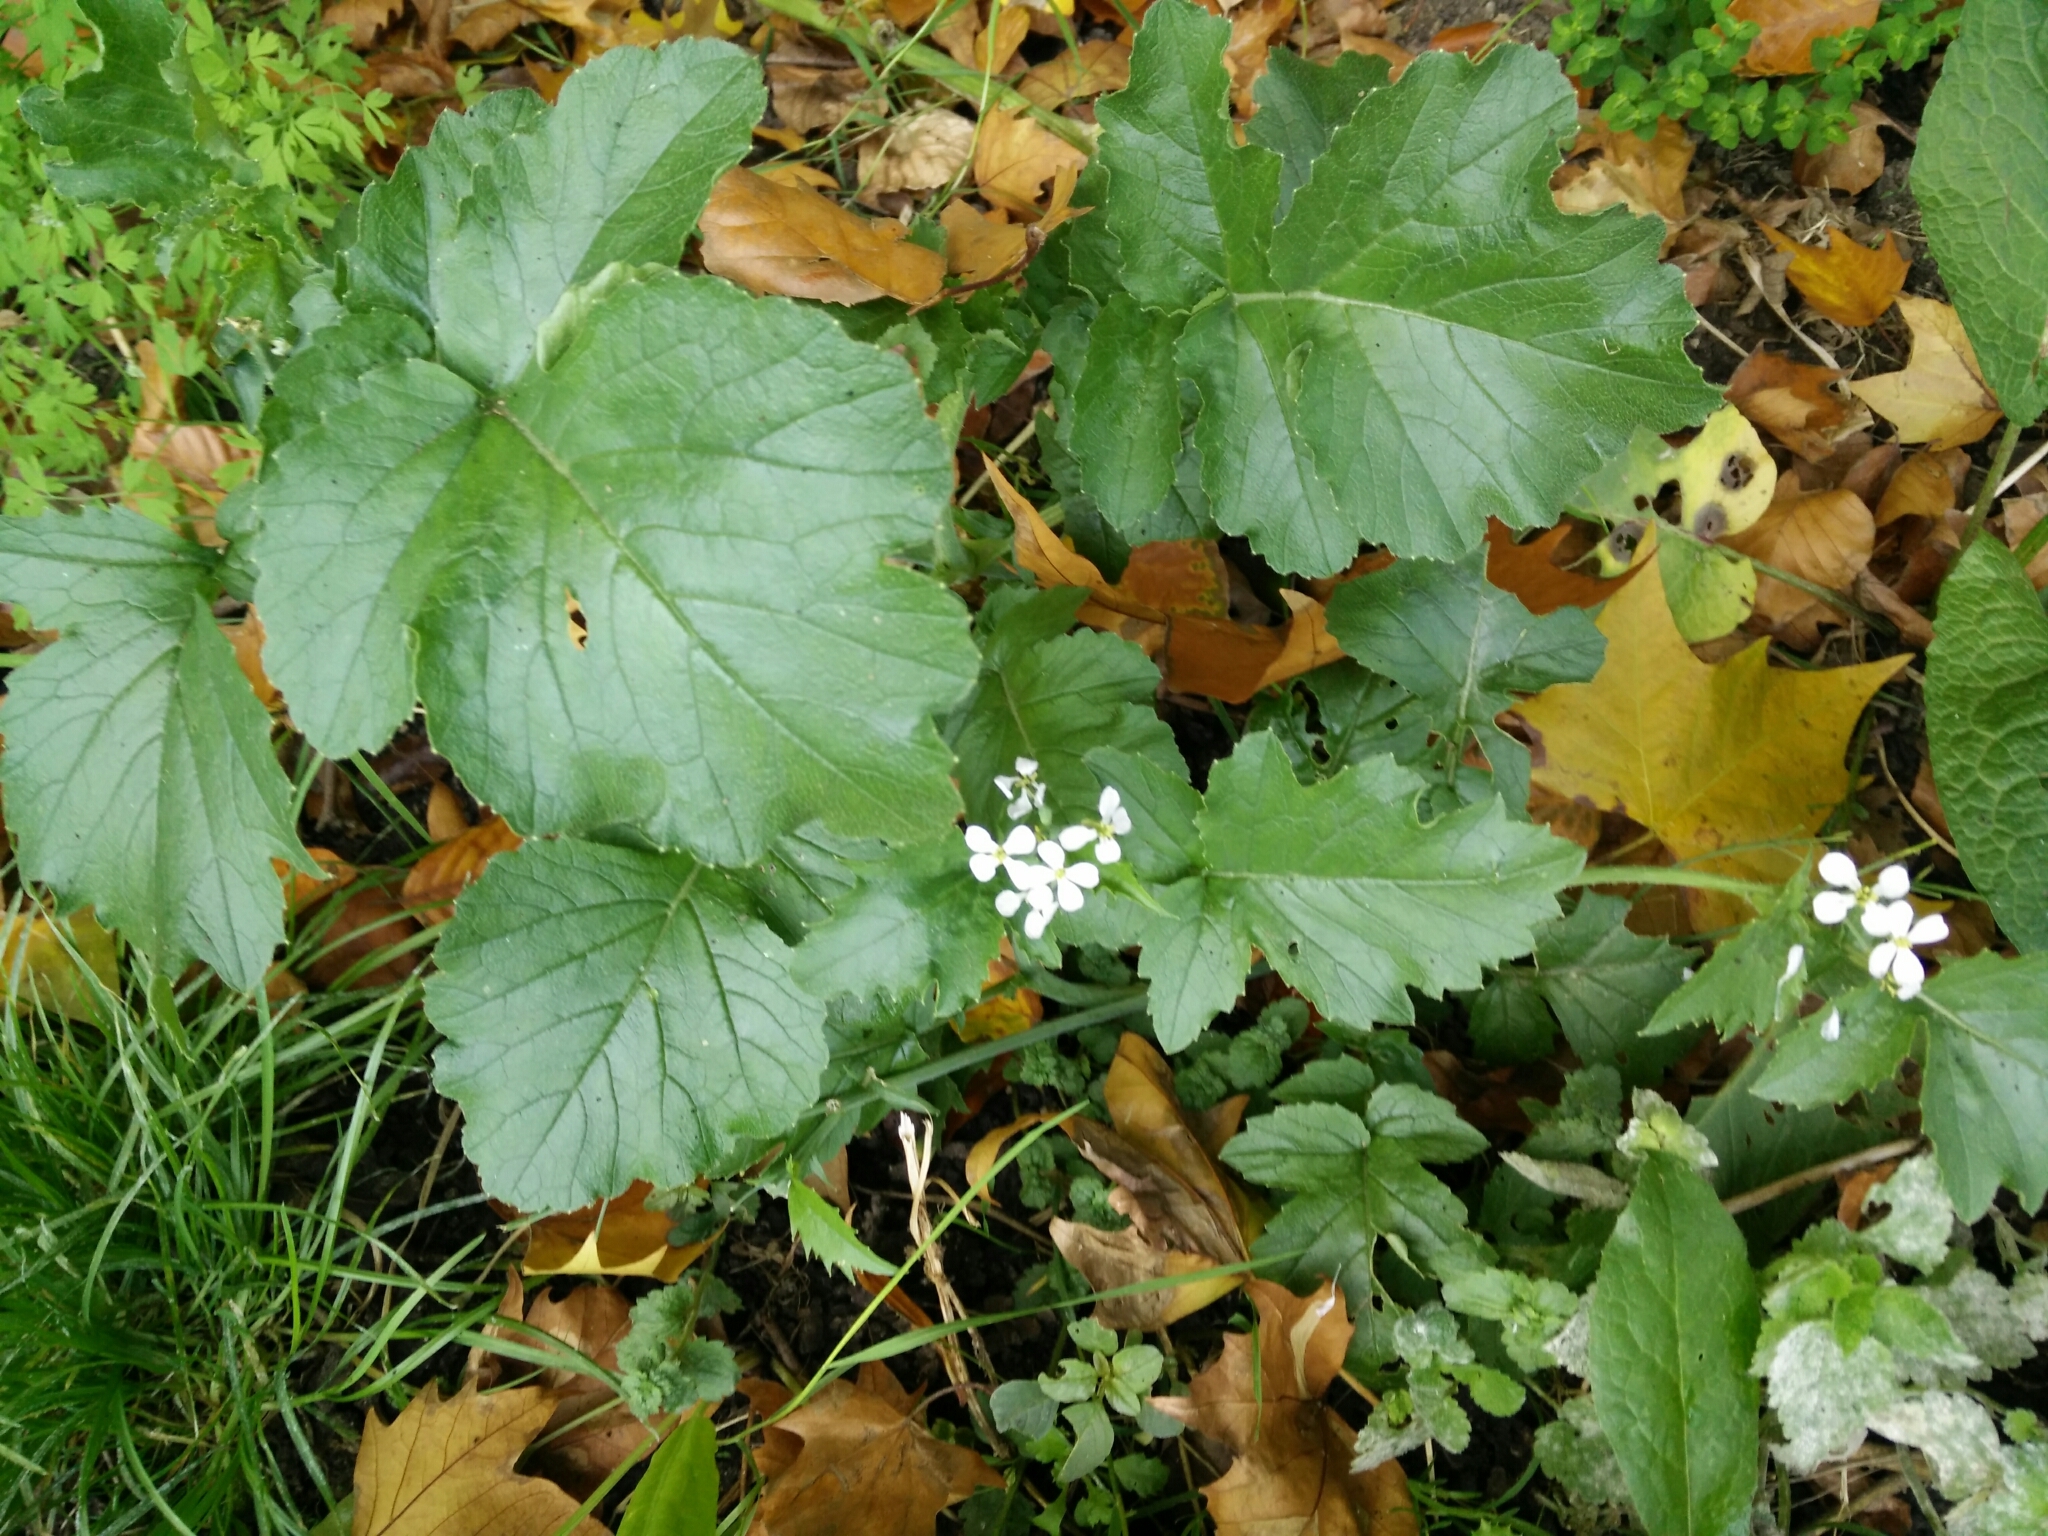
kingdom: Plantae
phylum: Tracheophyta
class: Magnoliopsida
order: Brassicales
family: Brassicaceae
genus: Raphanus
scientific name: Raphanus sativus
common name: Cultivated radish
